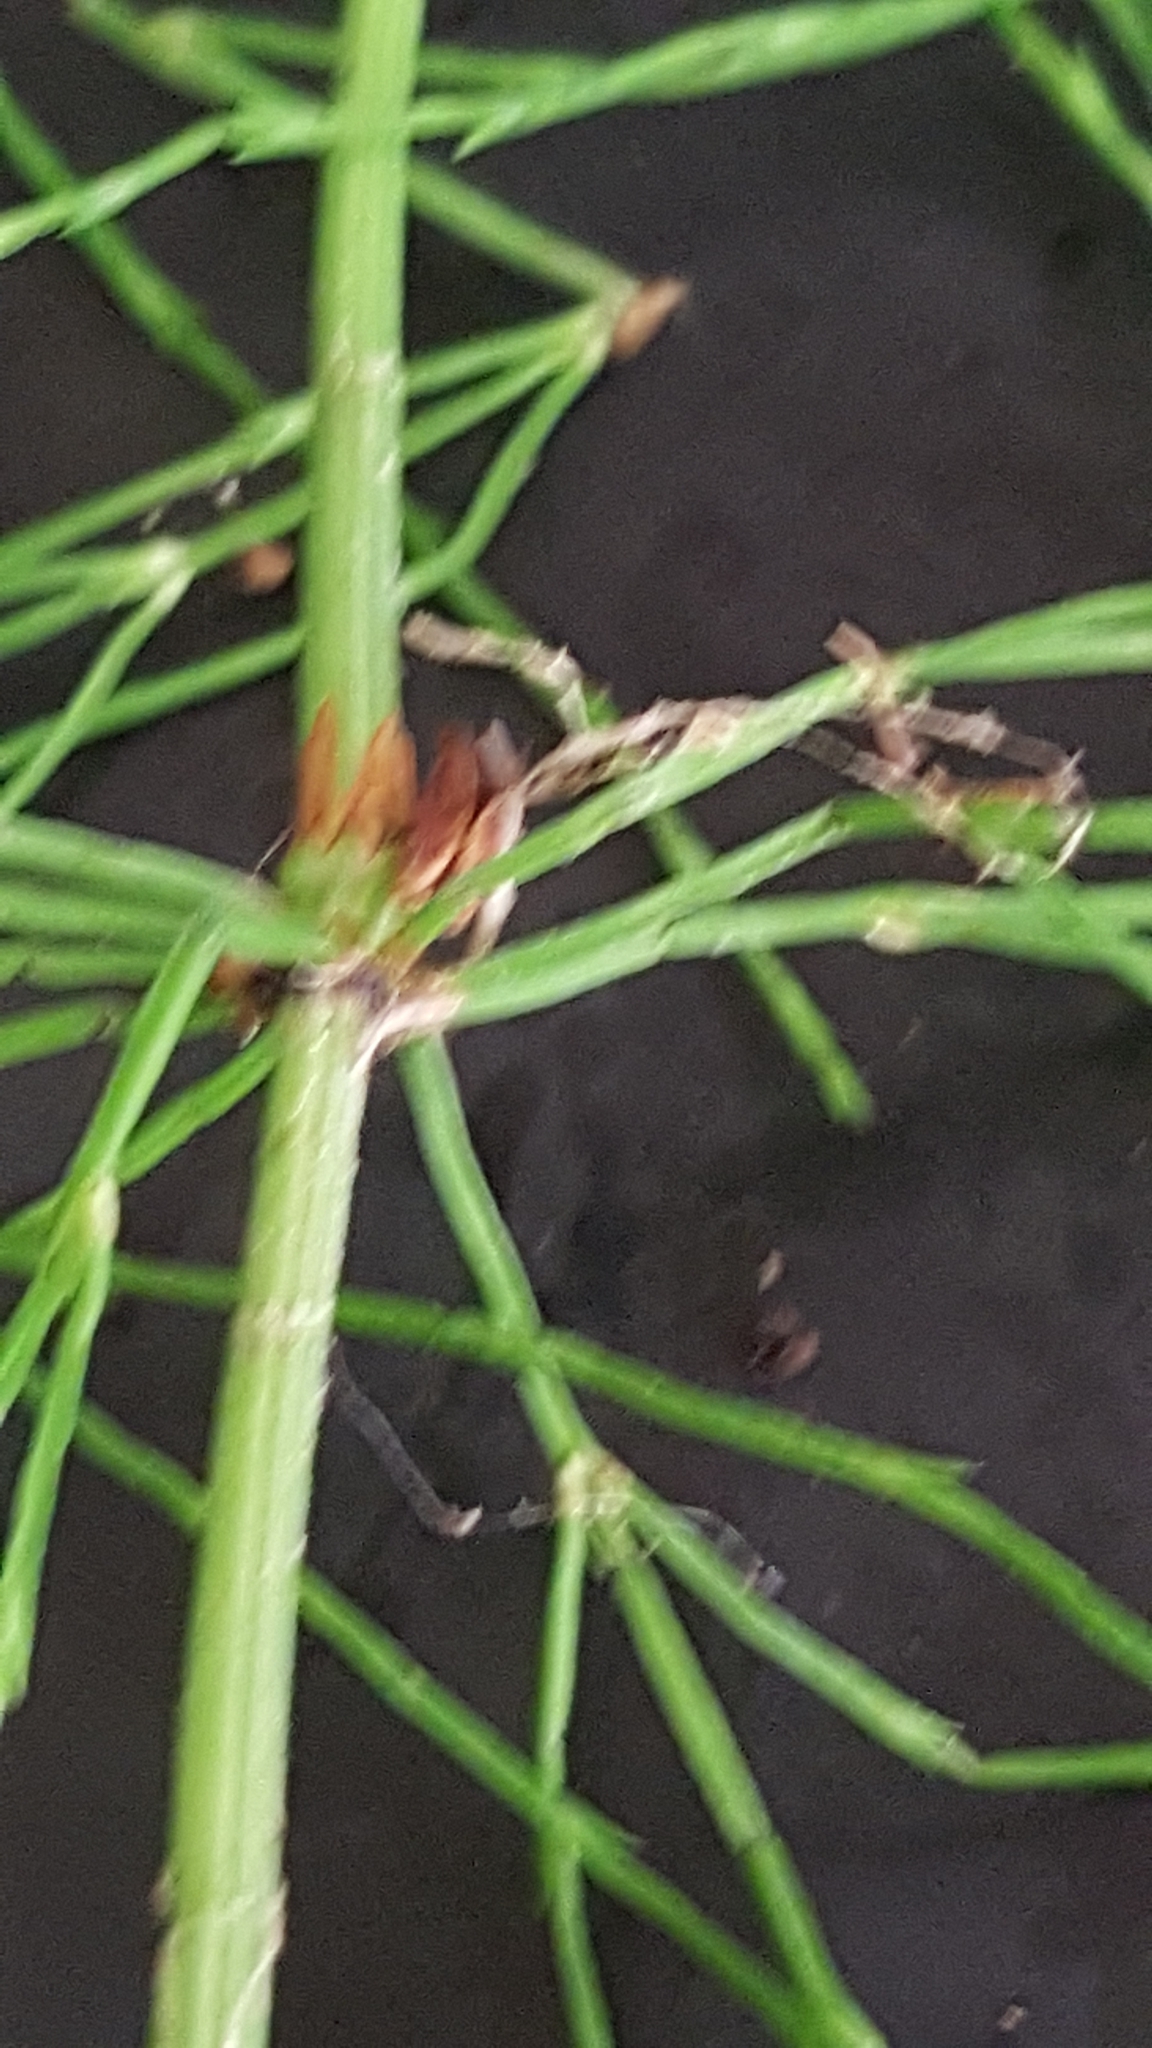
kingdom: Plantae
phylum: Tracheophyta
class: Polypodiopsida
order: Equisetales
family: Equisetaceae
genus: Equisetum
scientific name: Equisetum sylvaticum
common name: Wood horsetail
